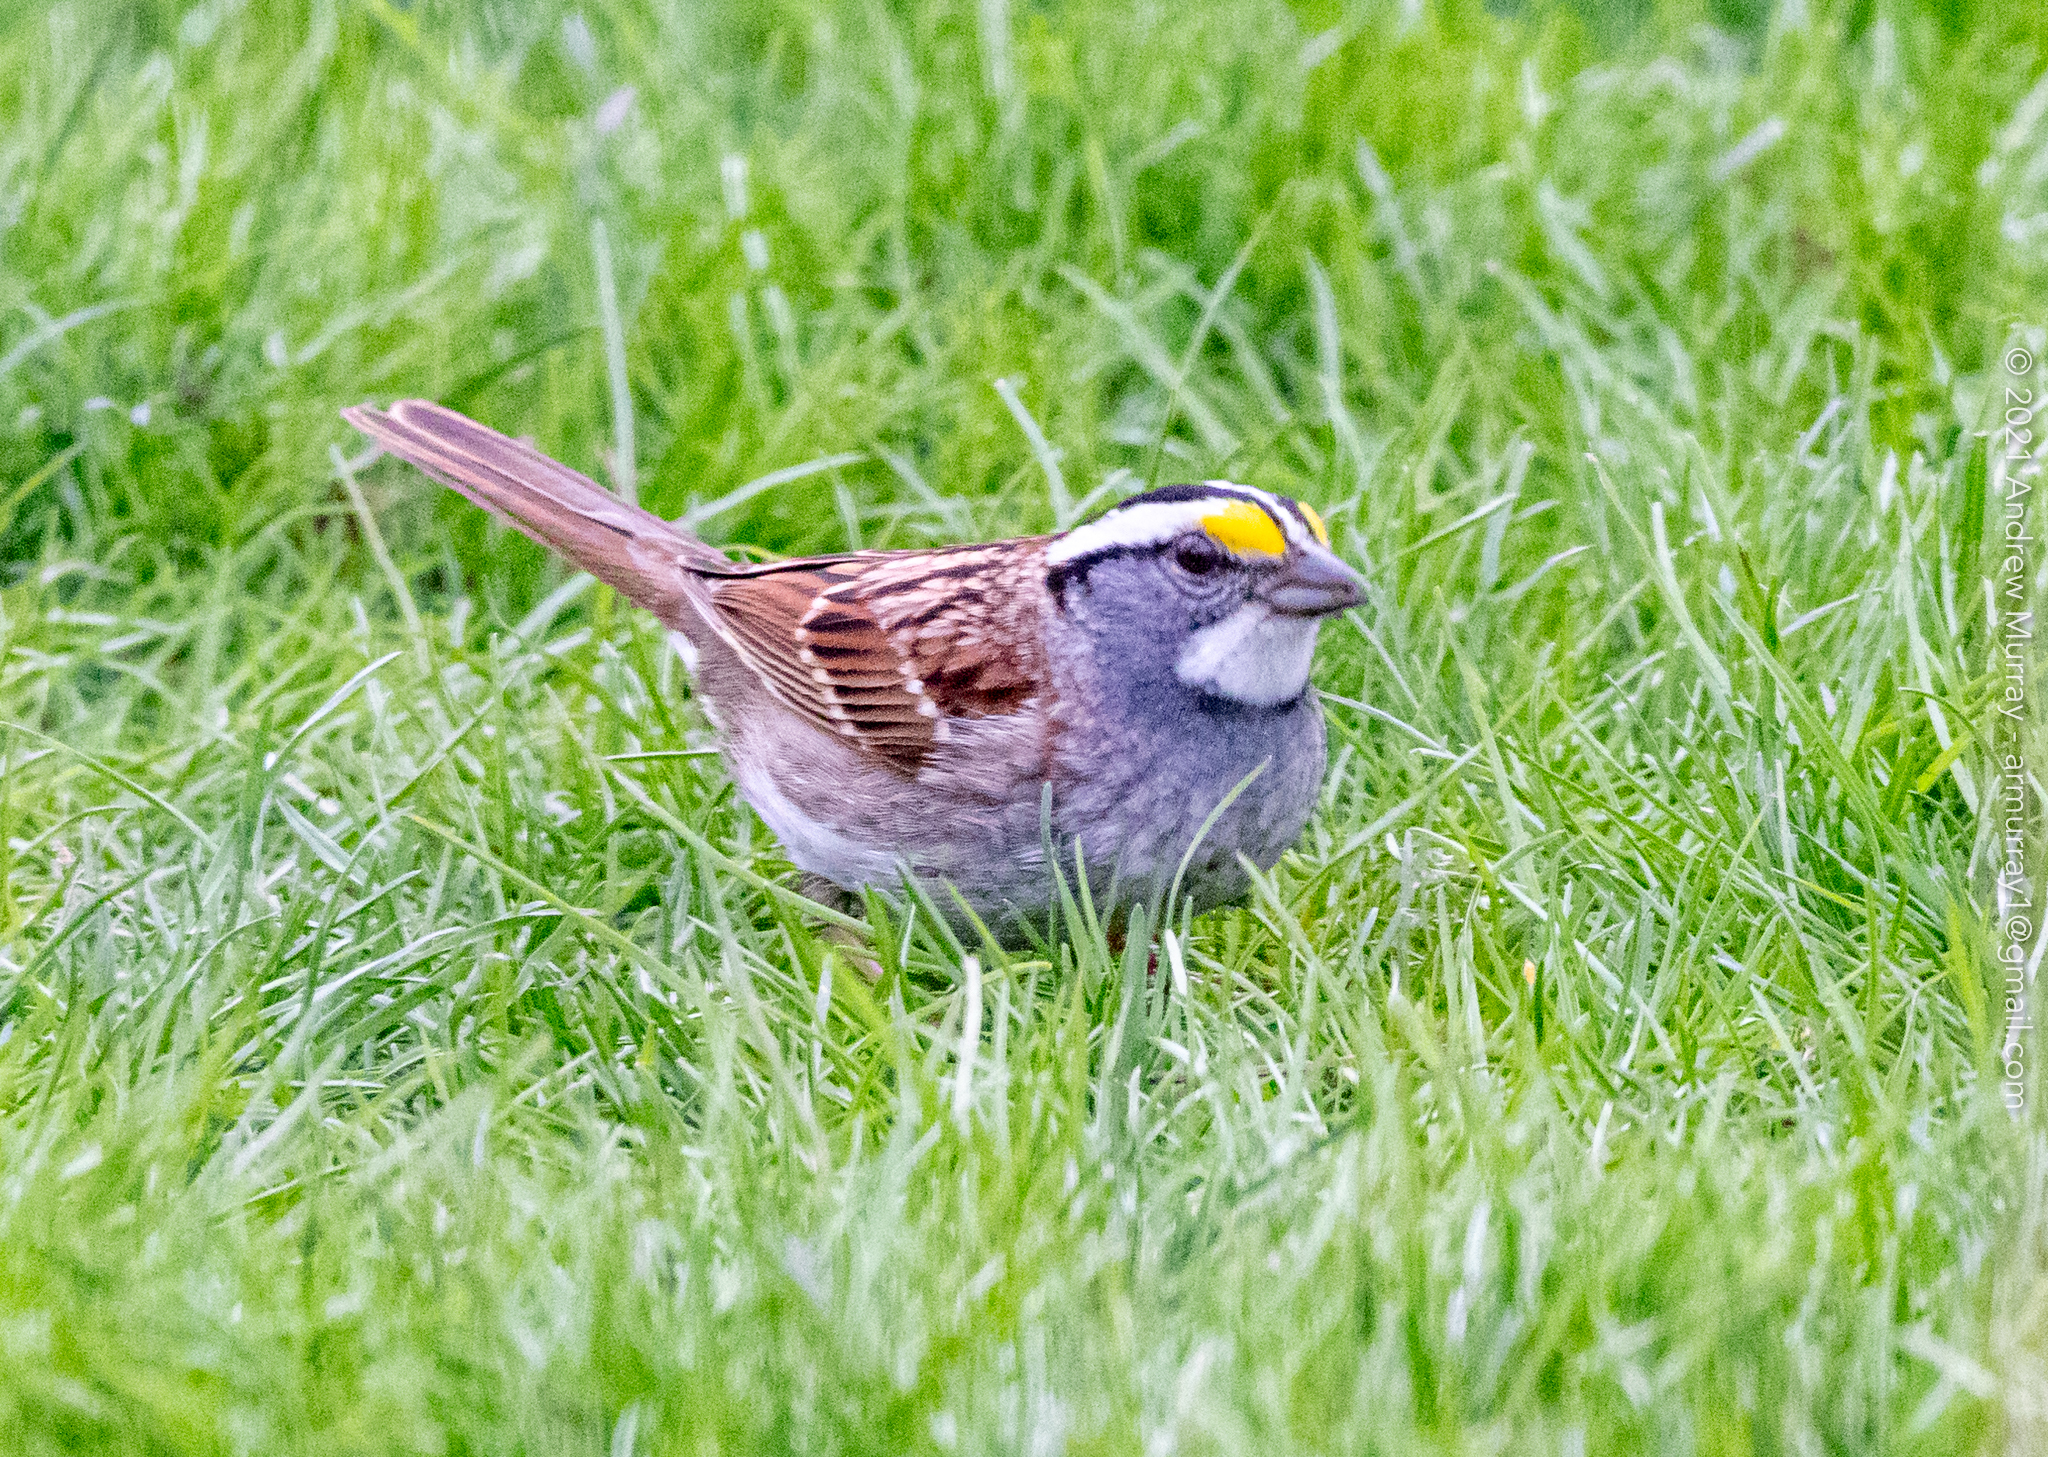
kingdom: Animalia
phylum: Chordata
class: Aves
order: Passeriformes
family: Passerellidae
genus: Zonotrichia
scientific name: Zonotrichia albicollis
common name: White-throated sparrow
